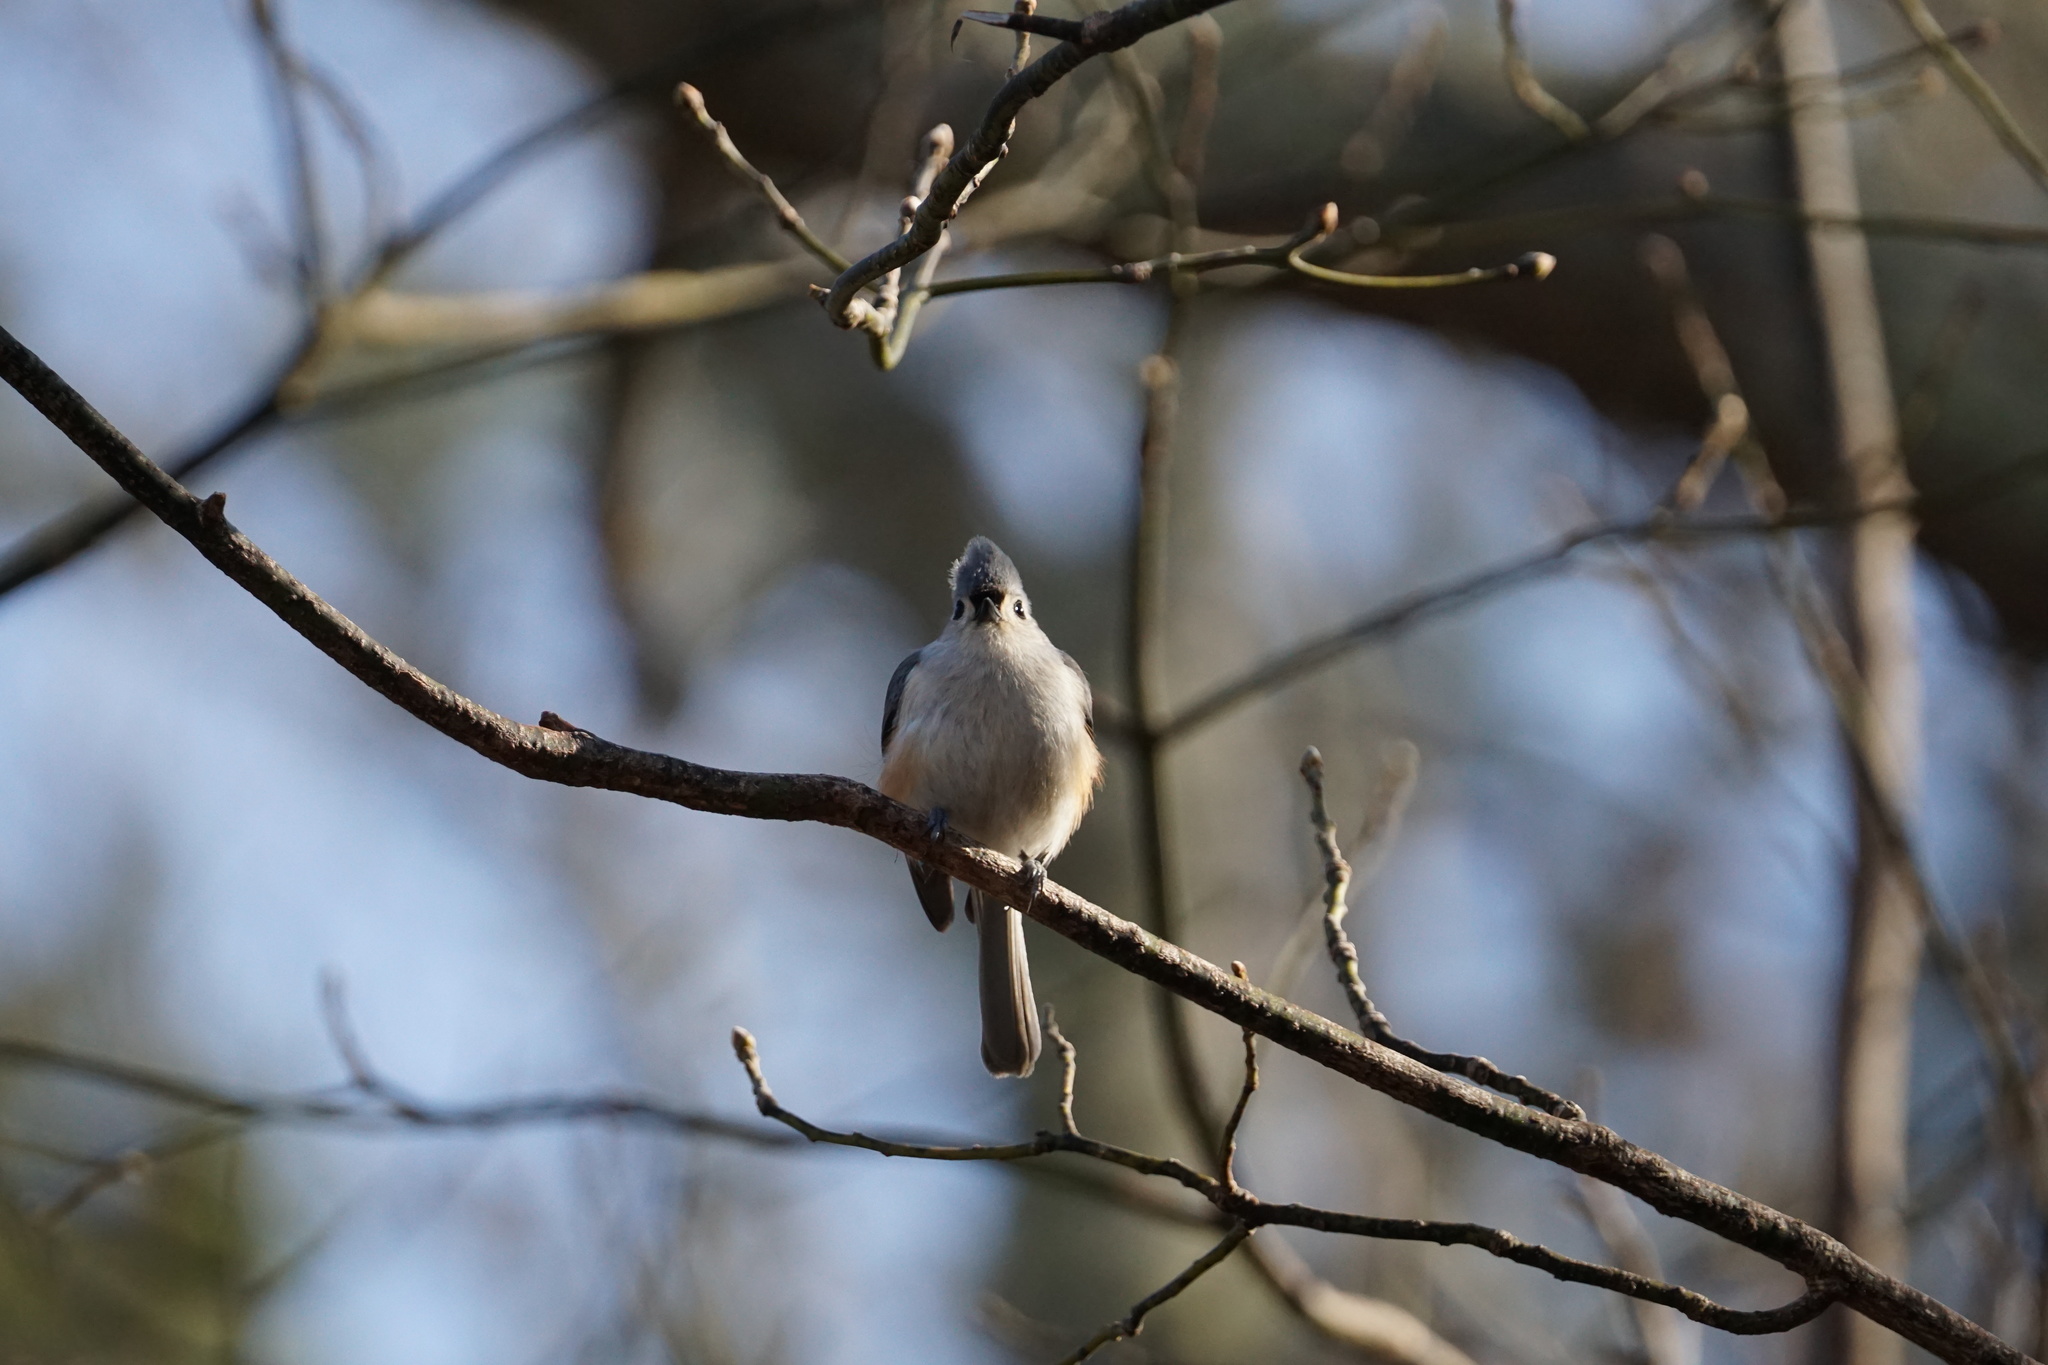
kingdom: Animalia
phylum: Chordata
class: Aves
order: Passeriformes
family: Paridae
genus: Baeolophus
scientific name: Baeolophus bicolor
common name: Tufted titmouse
